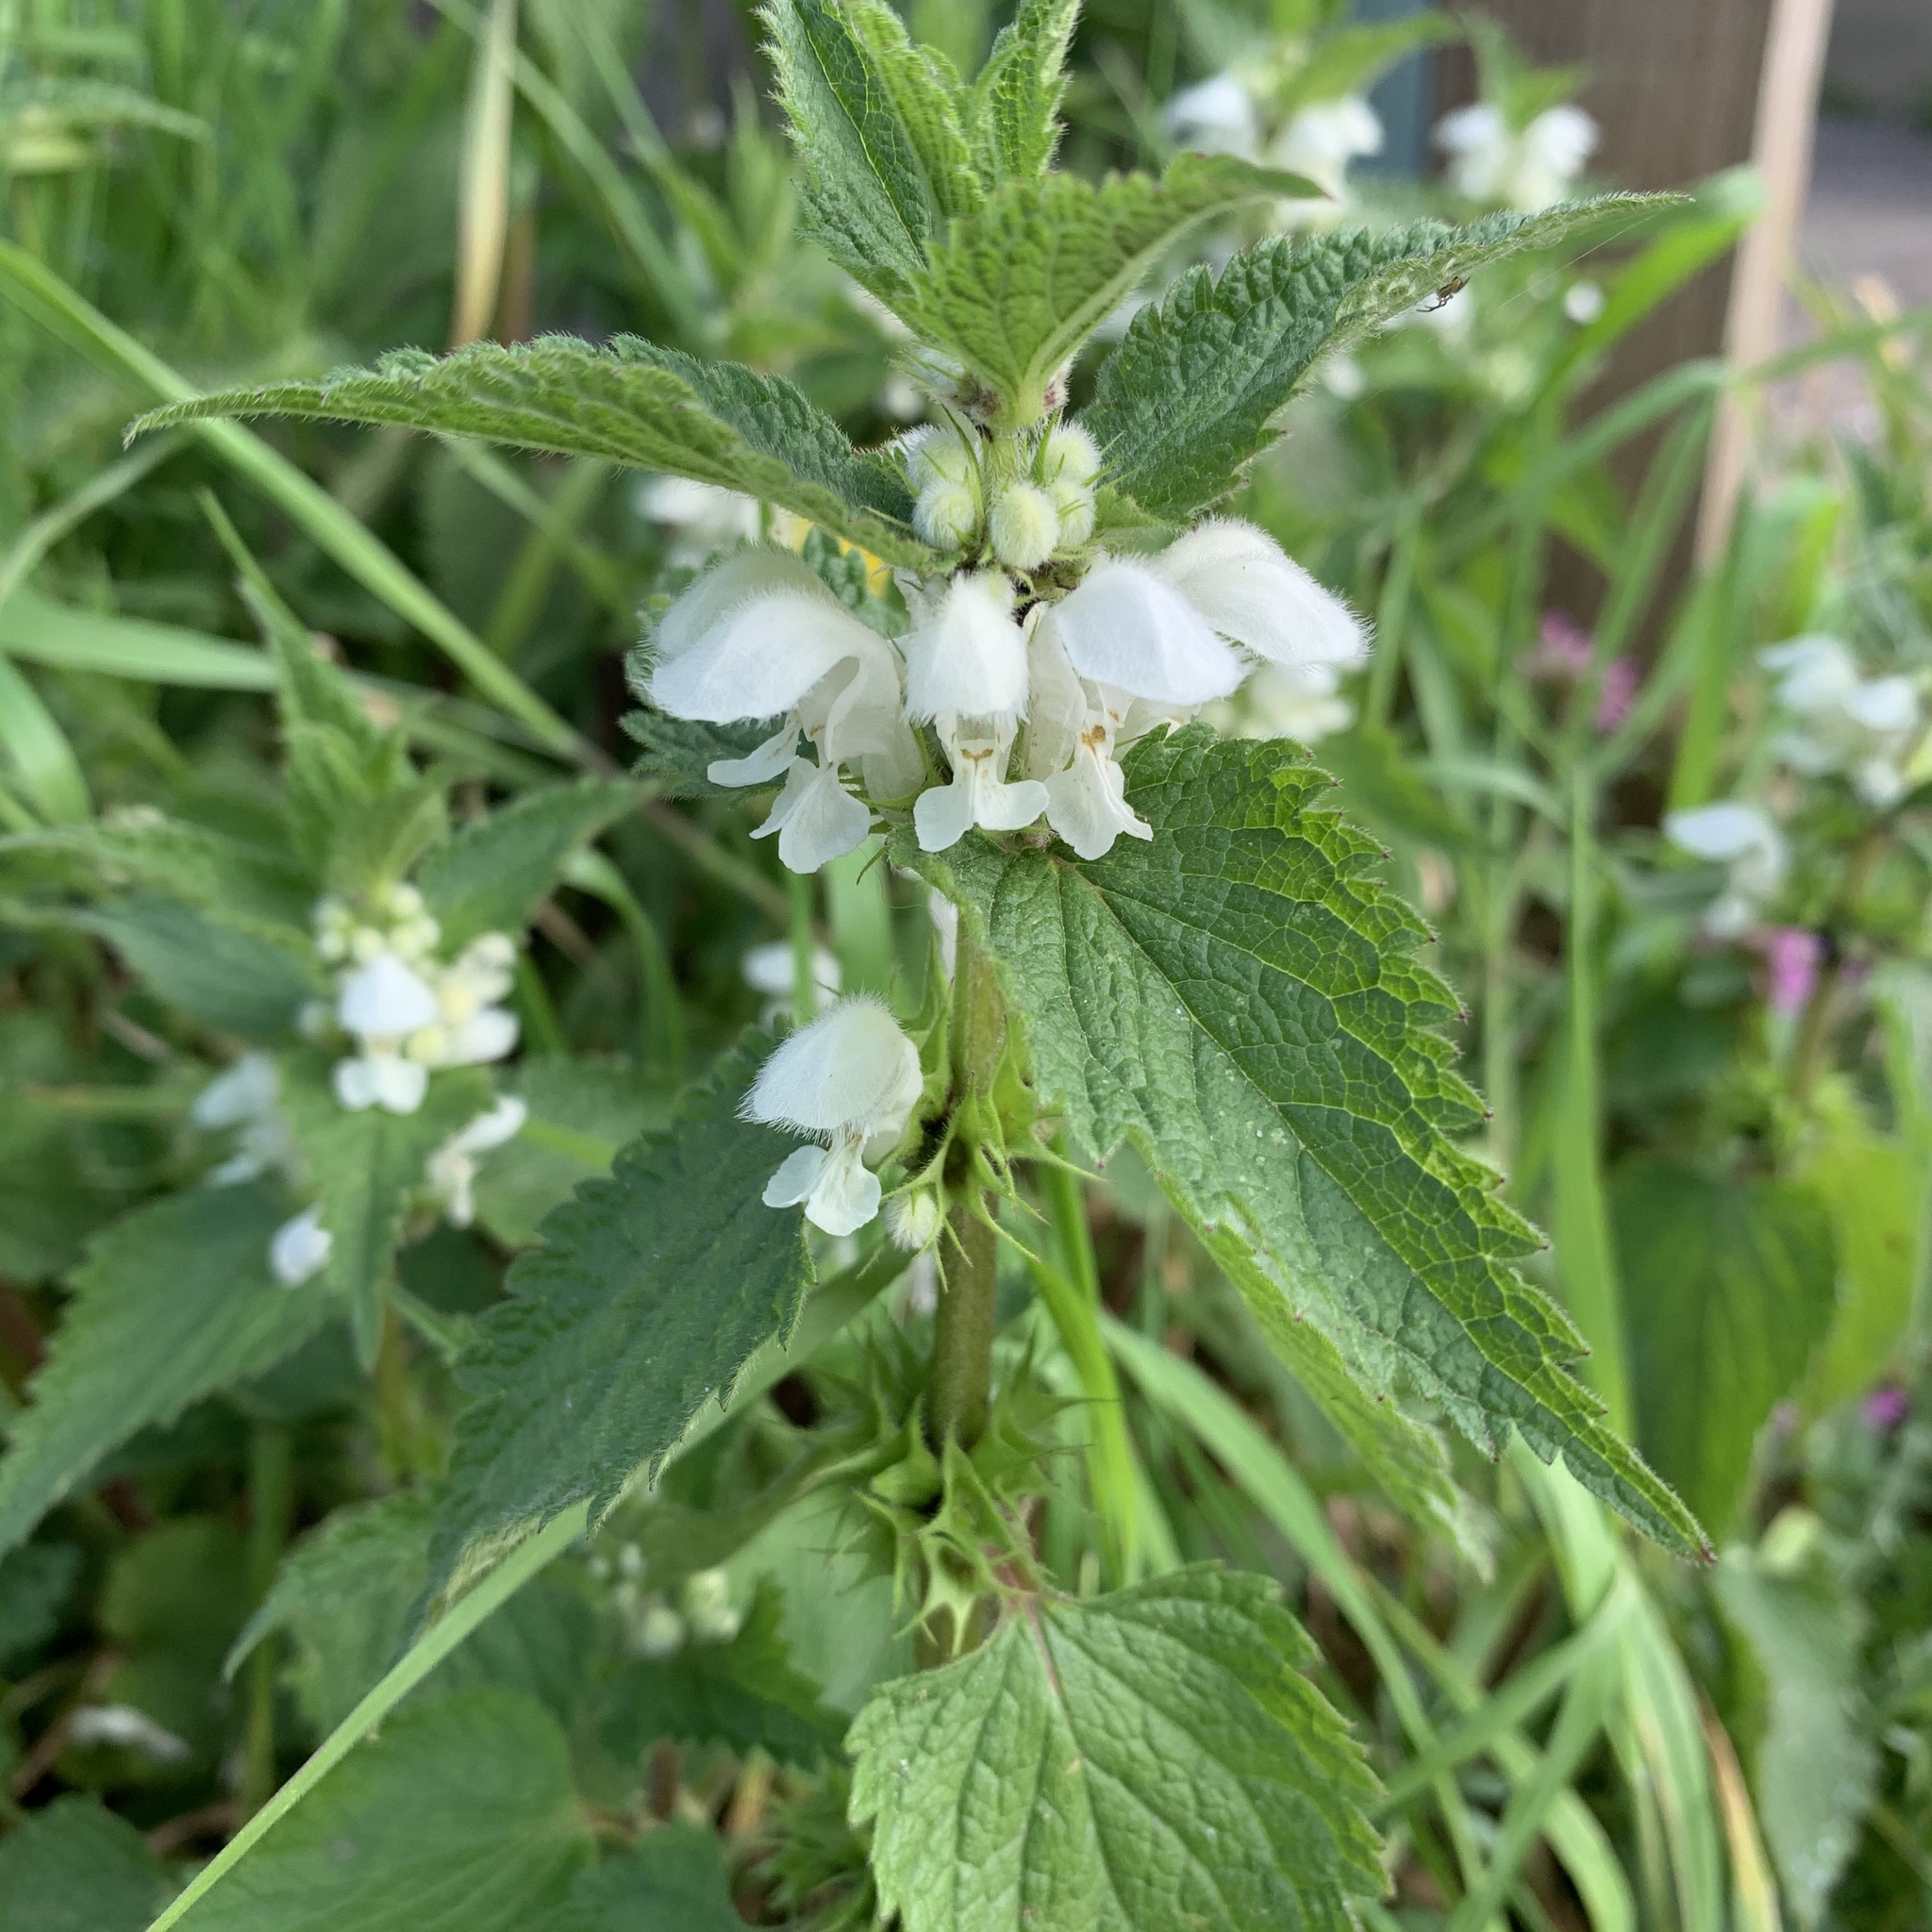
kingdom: Plantae
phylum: Tracheophyta
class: Magnoliopsida
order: Lamiales
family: Lamiaceae
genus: Lamium
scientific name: Lamium album
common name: White dead-nettle
